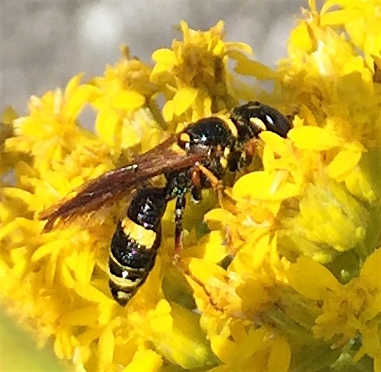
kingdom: Animalia
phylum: Arthropoda
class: Insecta
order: Hymenoptera
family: Crabronidae
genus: Philanthus
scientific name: Philanthus gibbosus
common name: Humped beewolf
